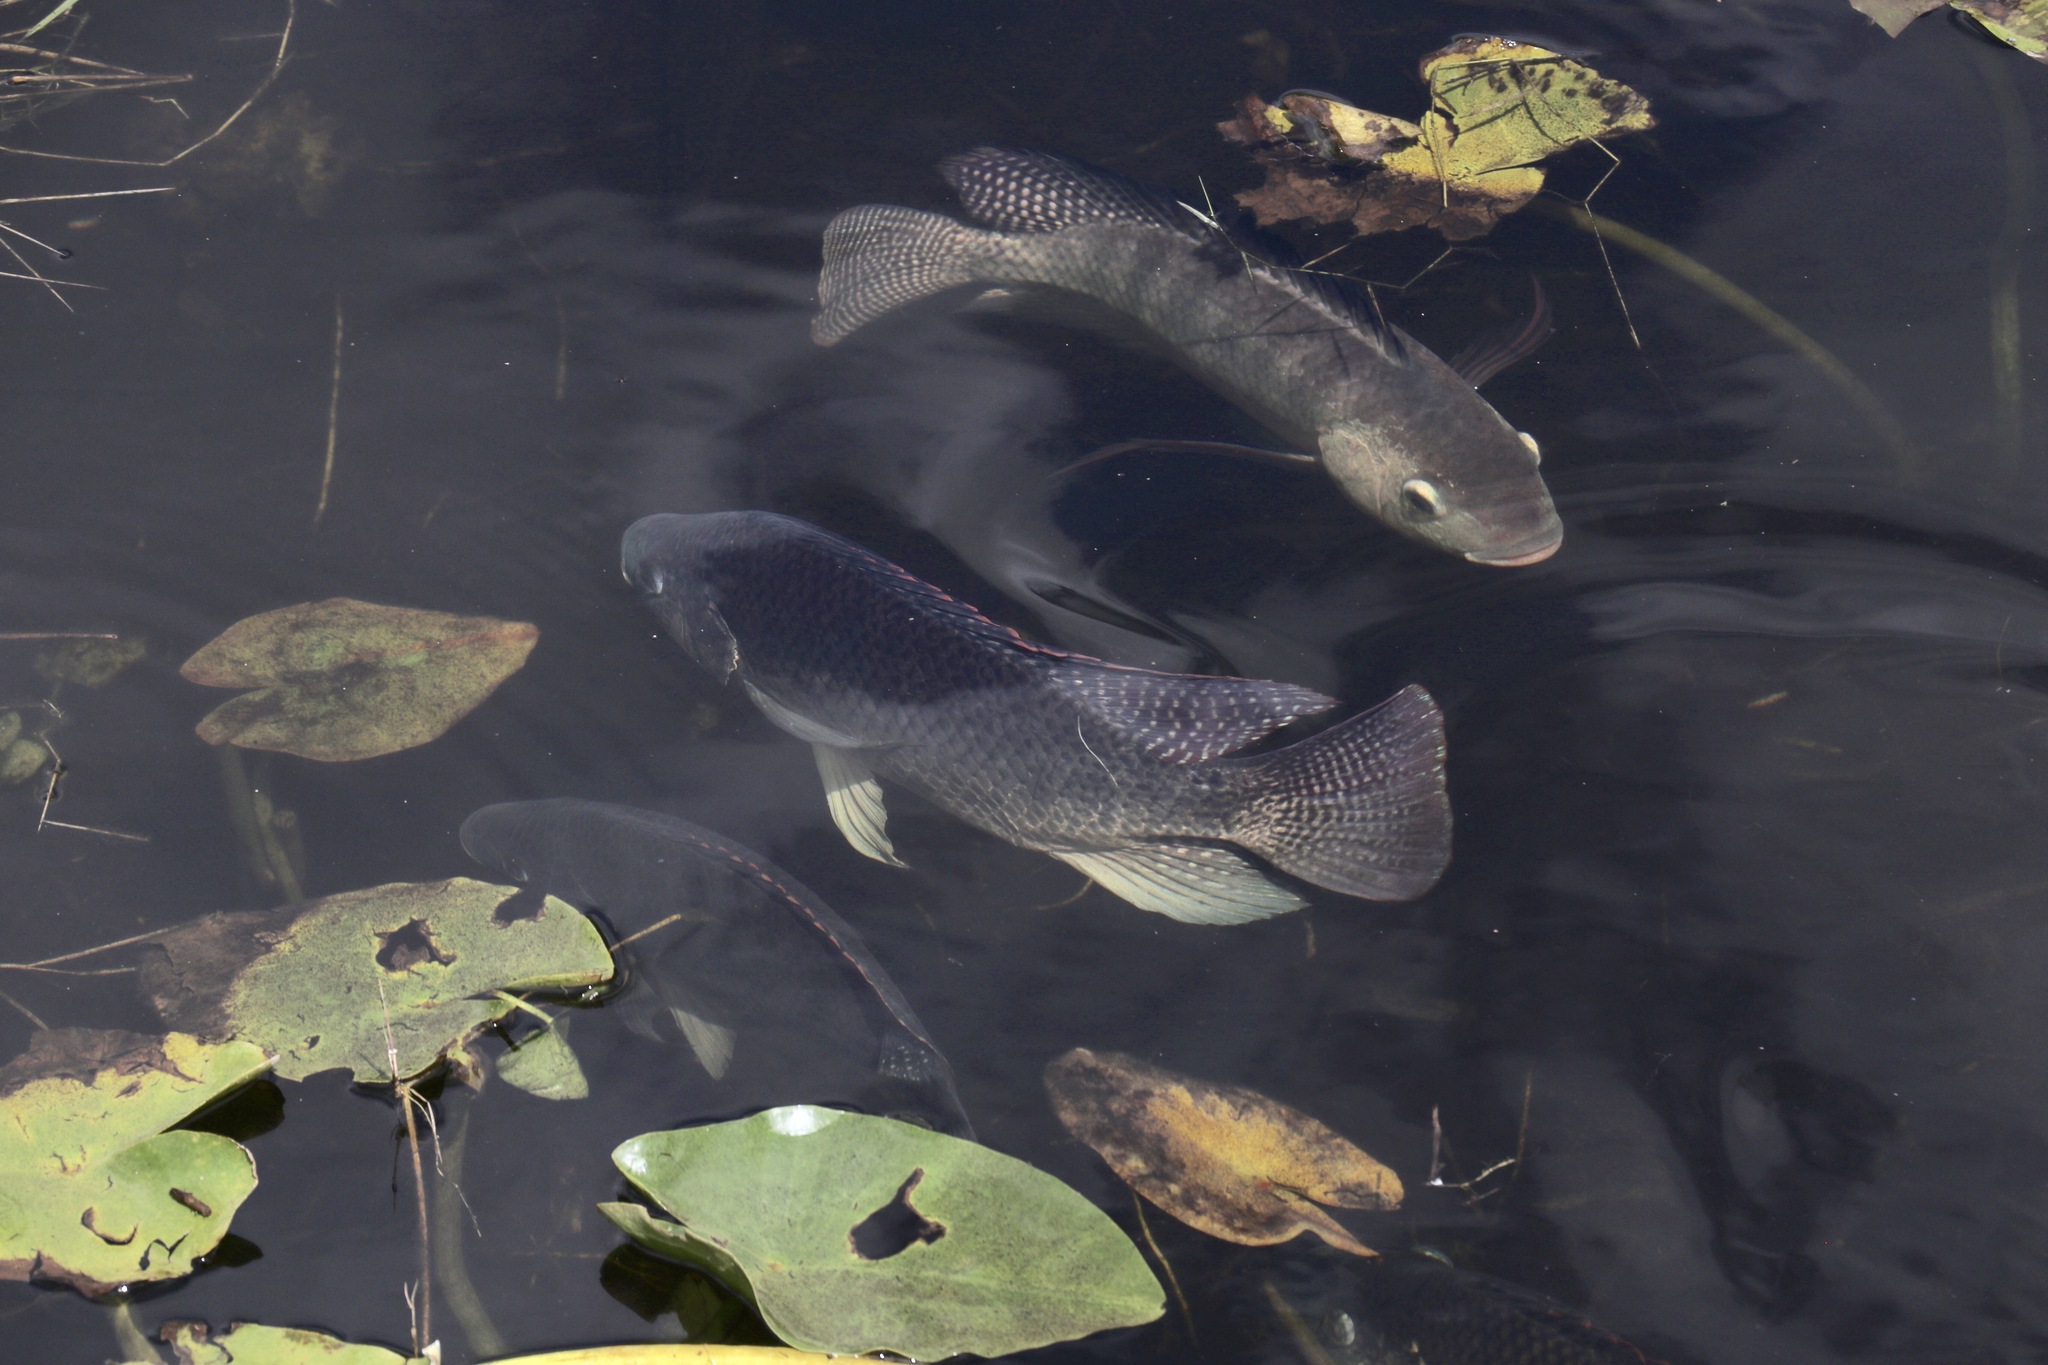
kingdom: Animalia
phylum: Chordata
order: Perciformes
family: Cichlidae
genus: Oreochromis
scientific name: Oreochromis aureus
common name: Blue tilapia
